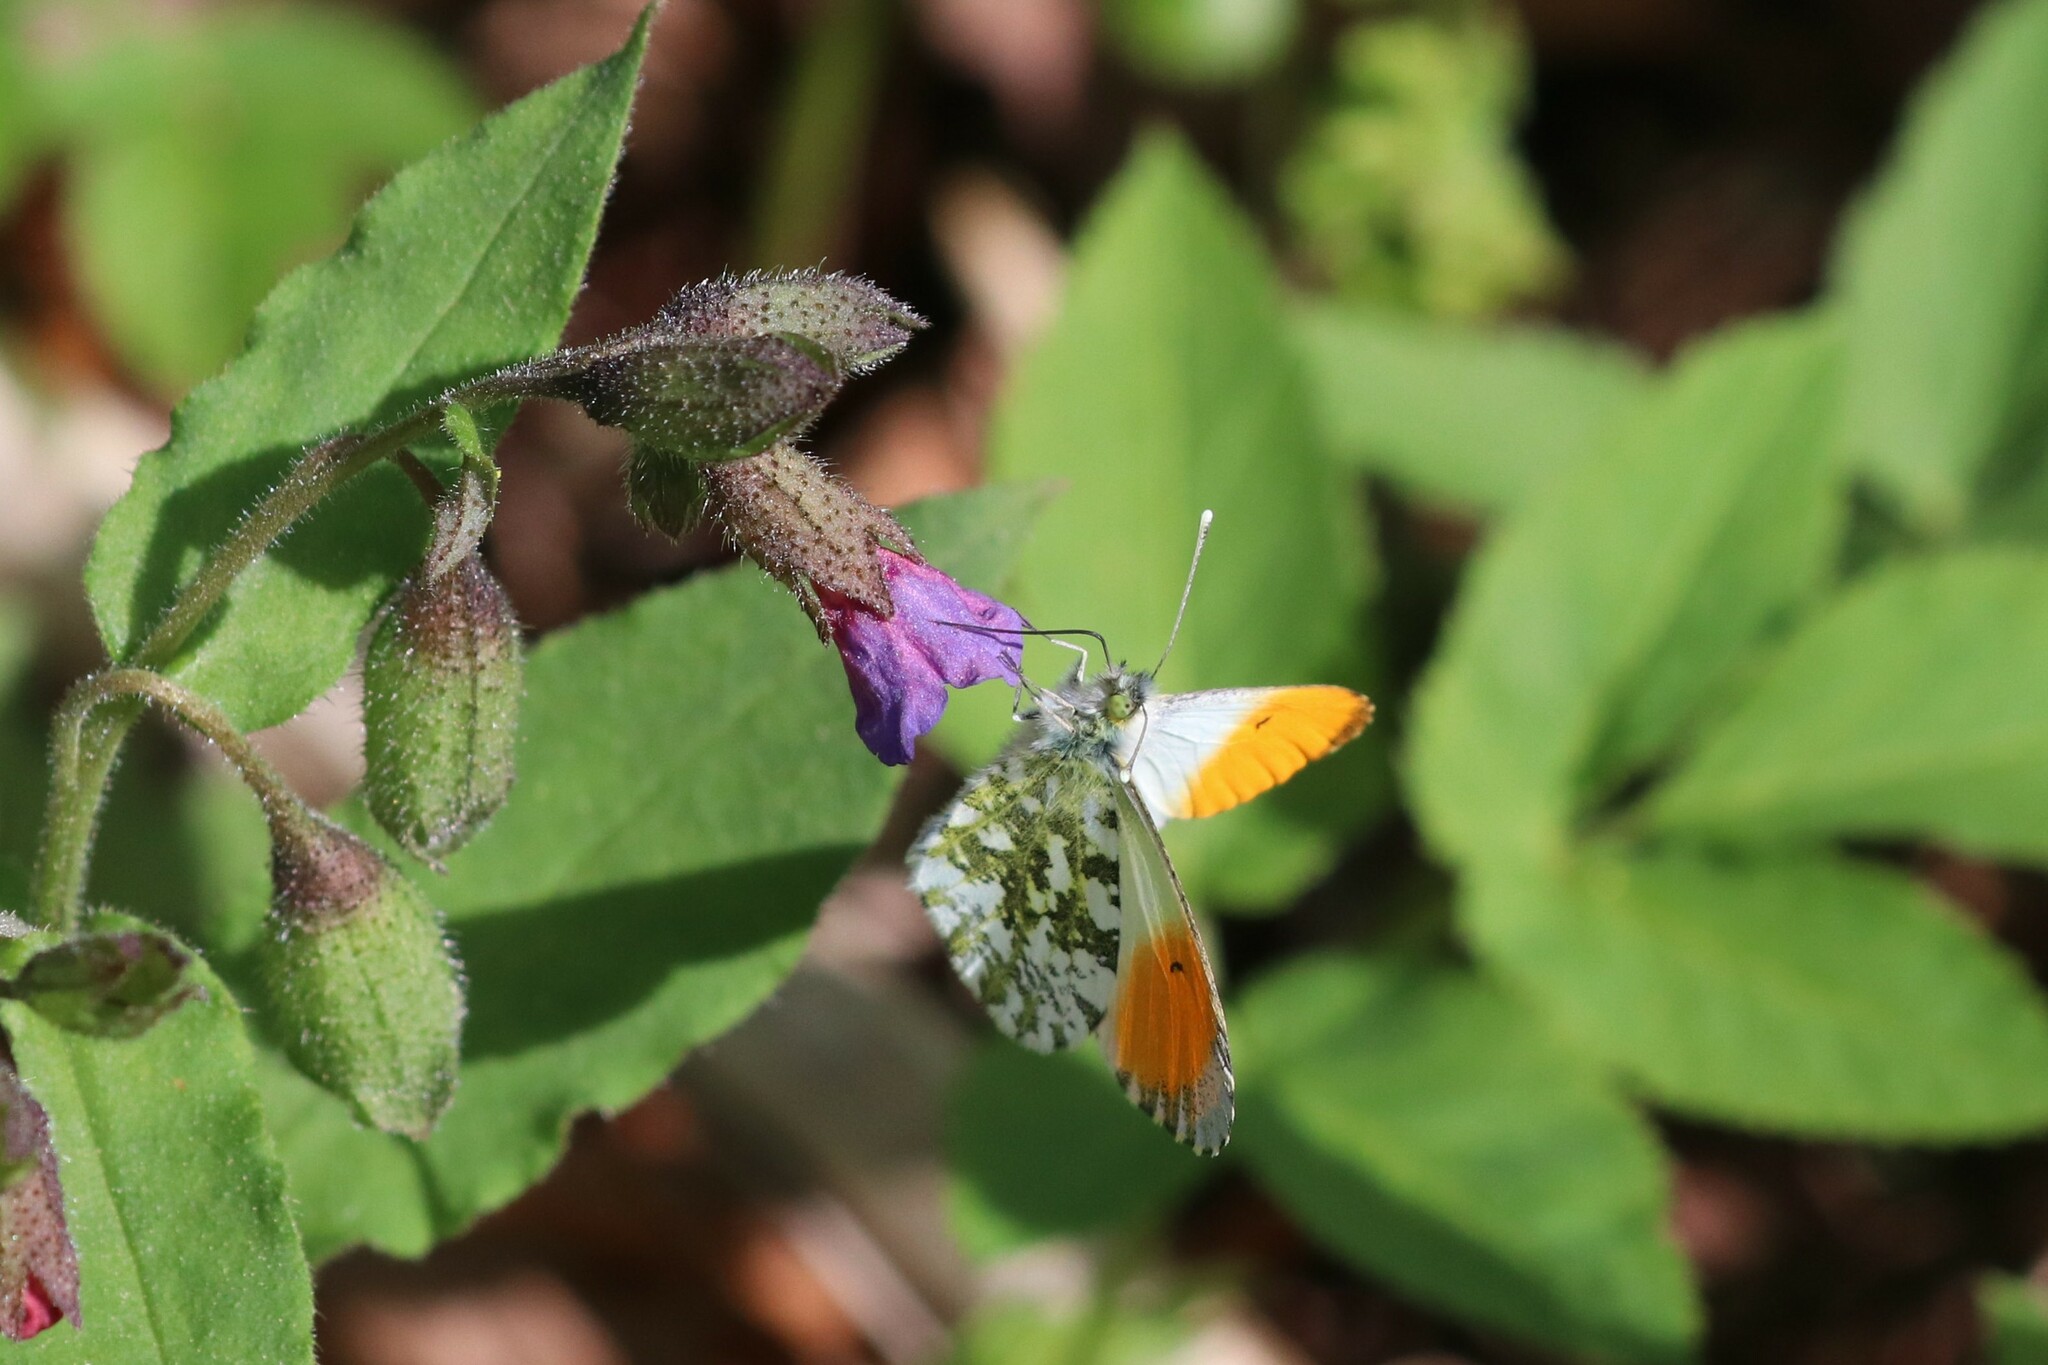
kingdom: Animalia
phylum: Arthropoda
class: Insecta
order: Lepidoptera
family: Pieridae
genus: Anthocharis
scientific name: Anthocharis cardamines
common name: Orange-tip
